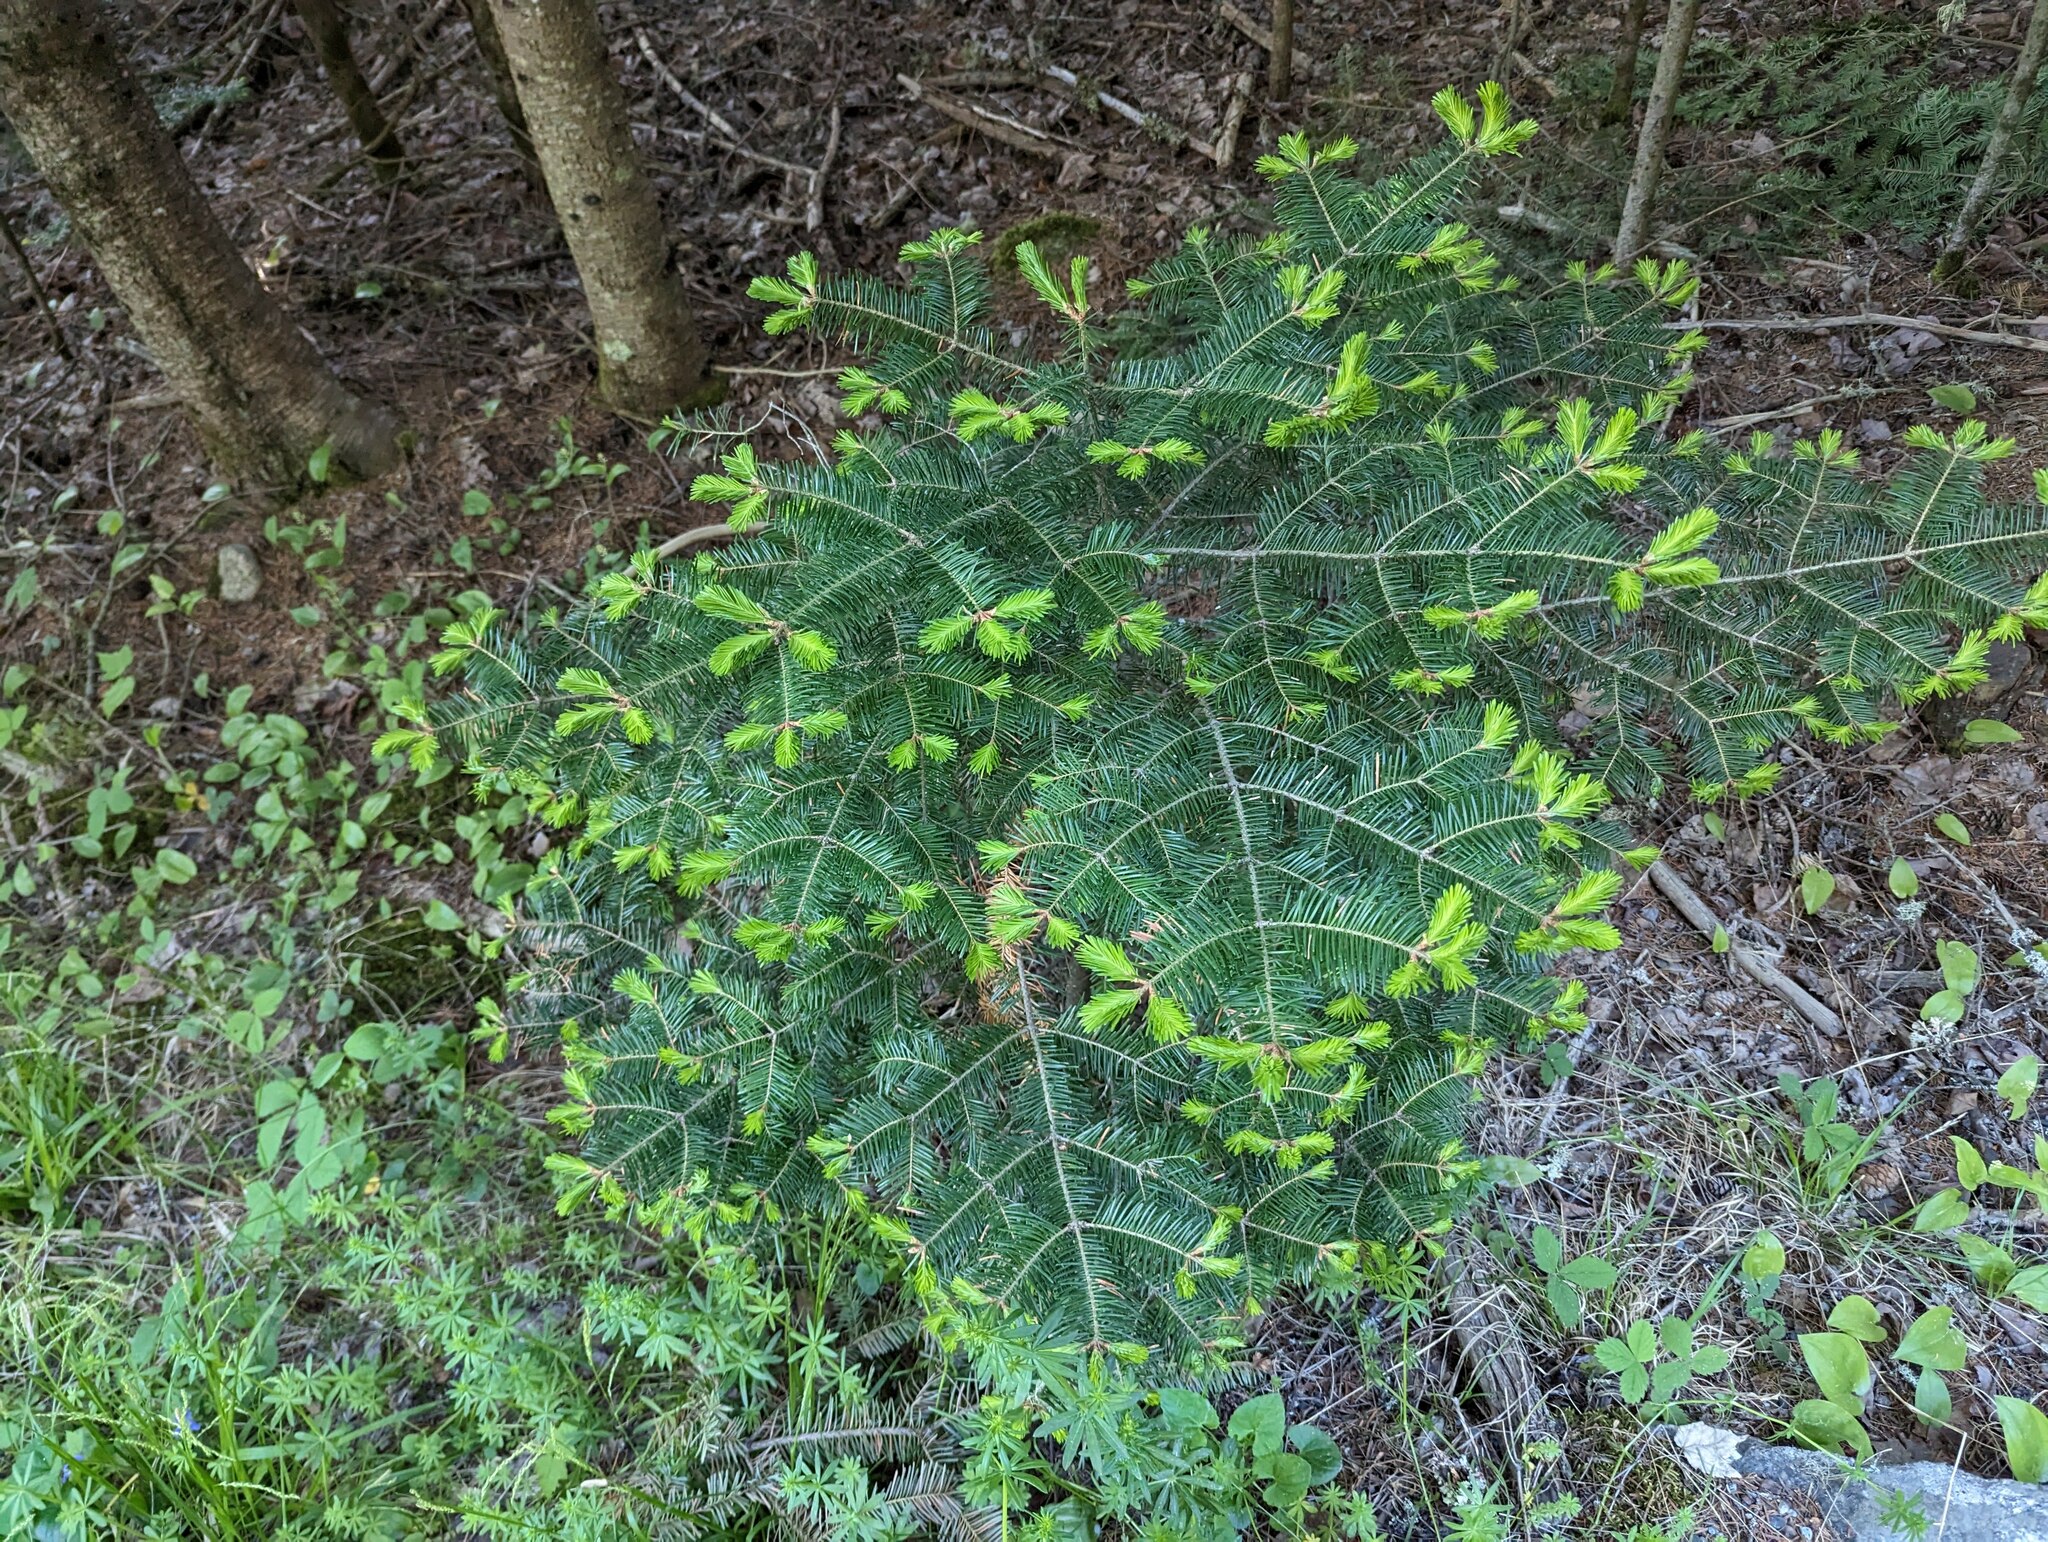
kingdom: Plantae
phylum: Tracheophyta
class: Pinopsida
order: Pinales
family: Pinaceae
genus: Abies
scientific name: Abies balsamea
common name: Balsam fir
